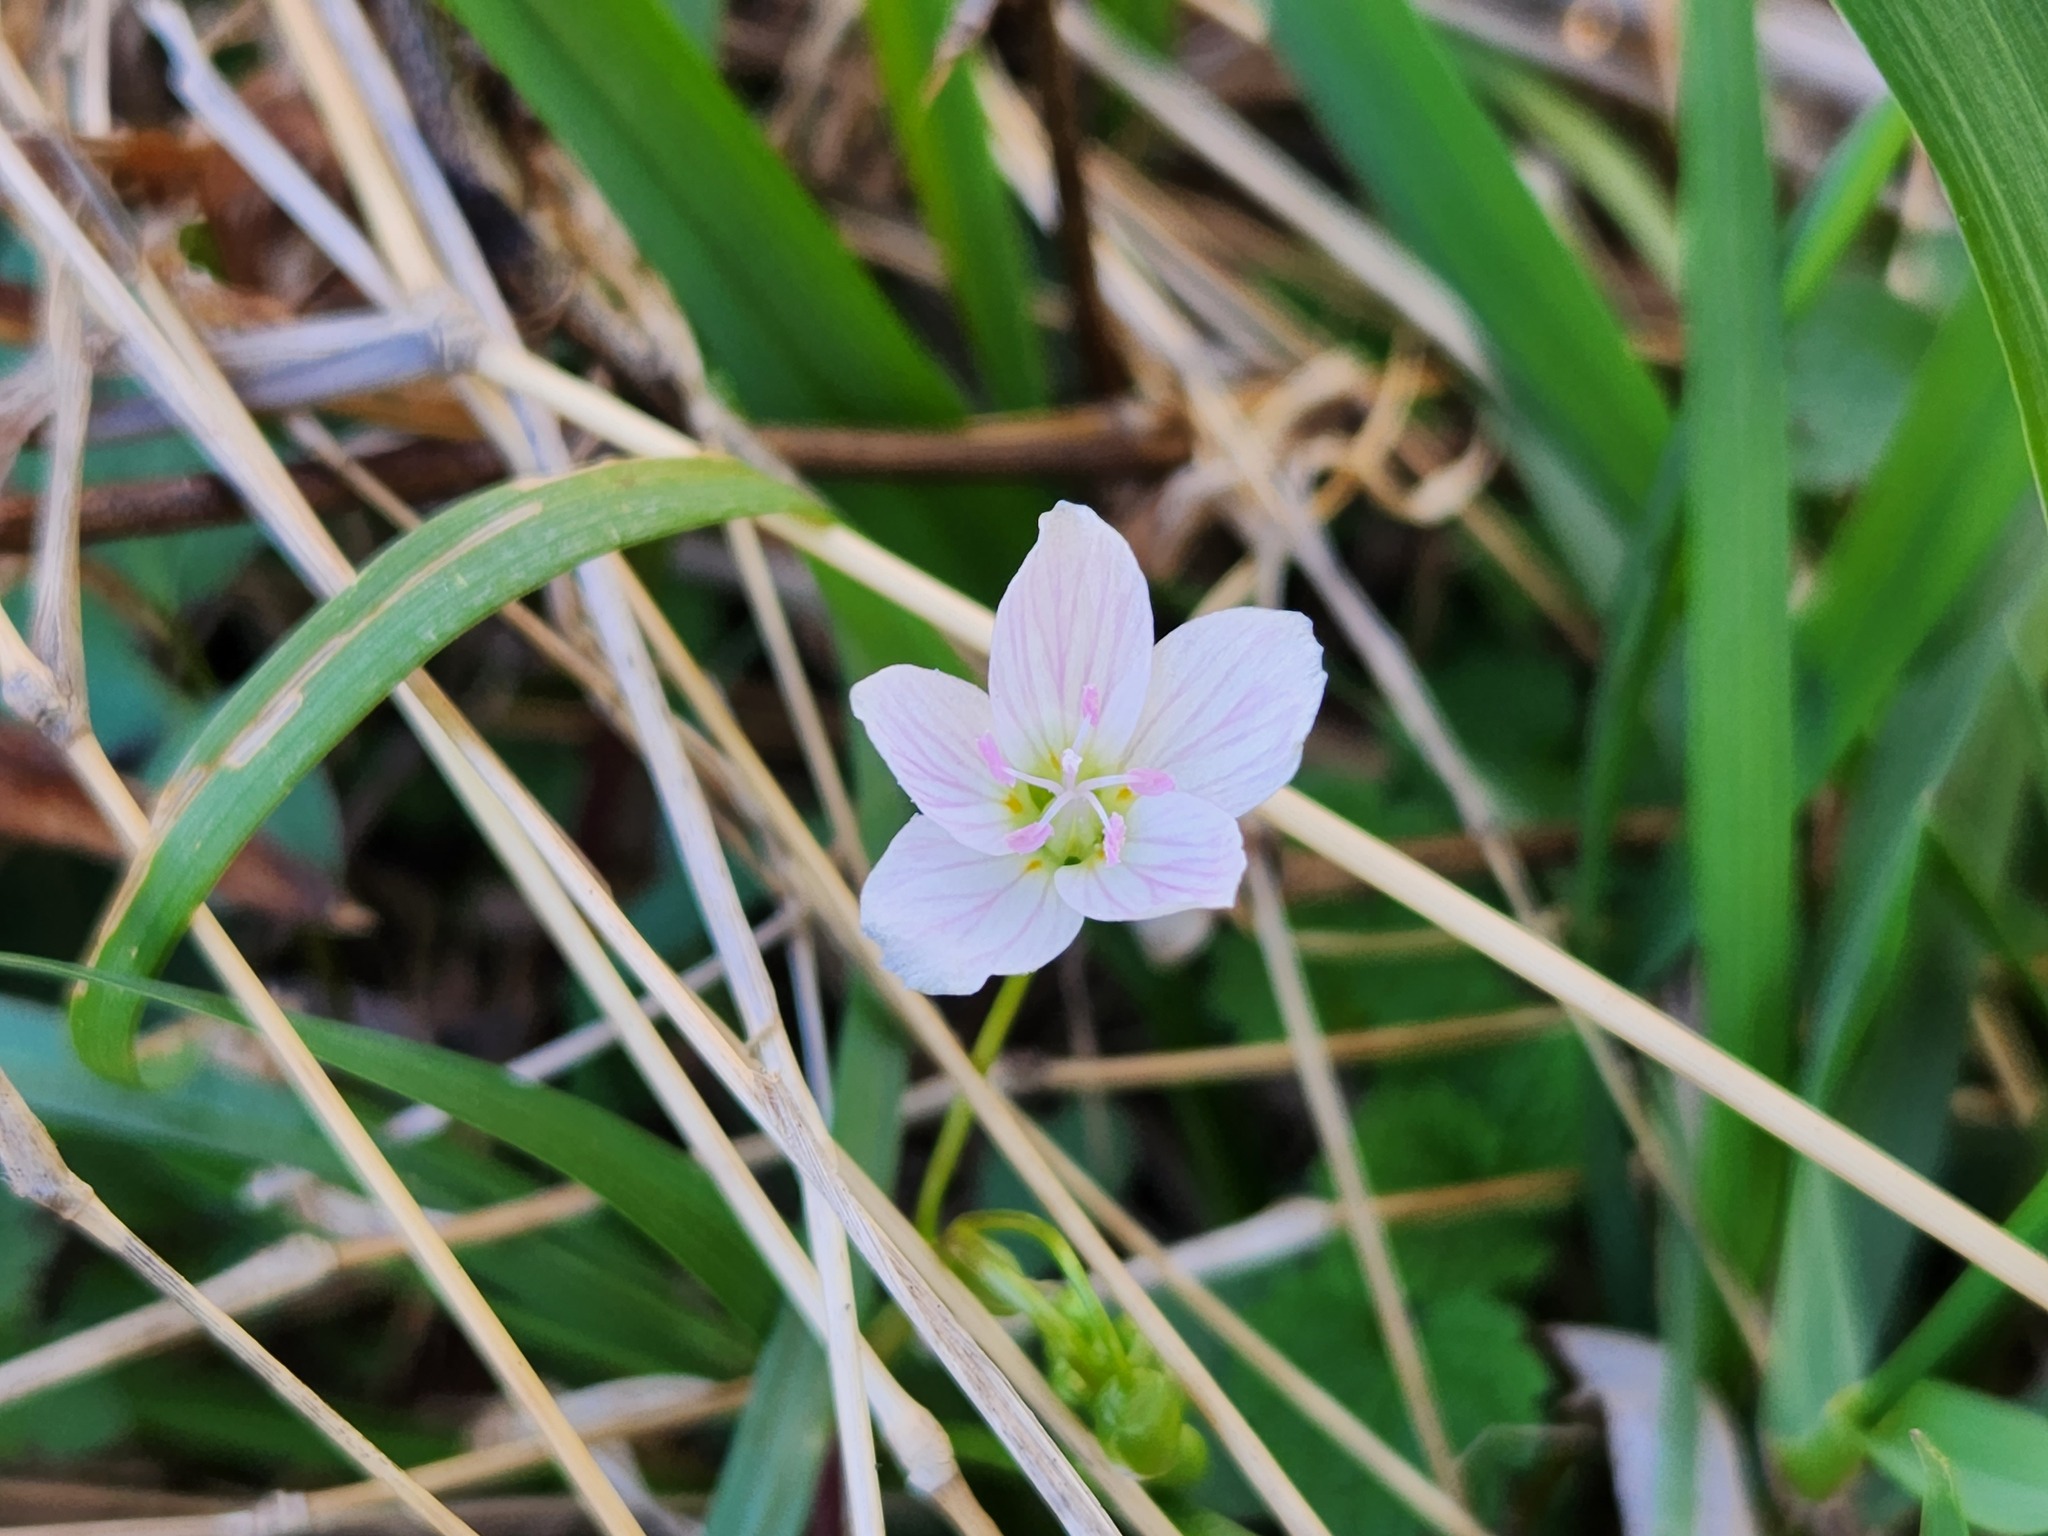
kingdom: Plantae
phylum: Tracheophyta
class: Magnoliopsida
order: Caryophyllales
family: Montiaceae
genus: Claytonia
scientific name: Claytonia virginica
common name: Virginia springbeauty
